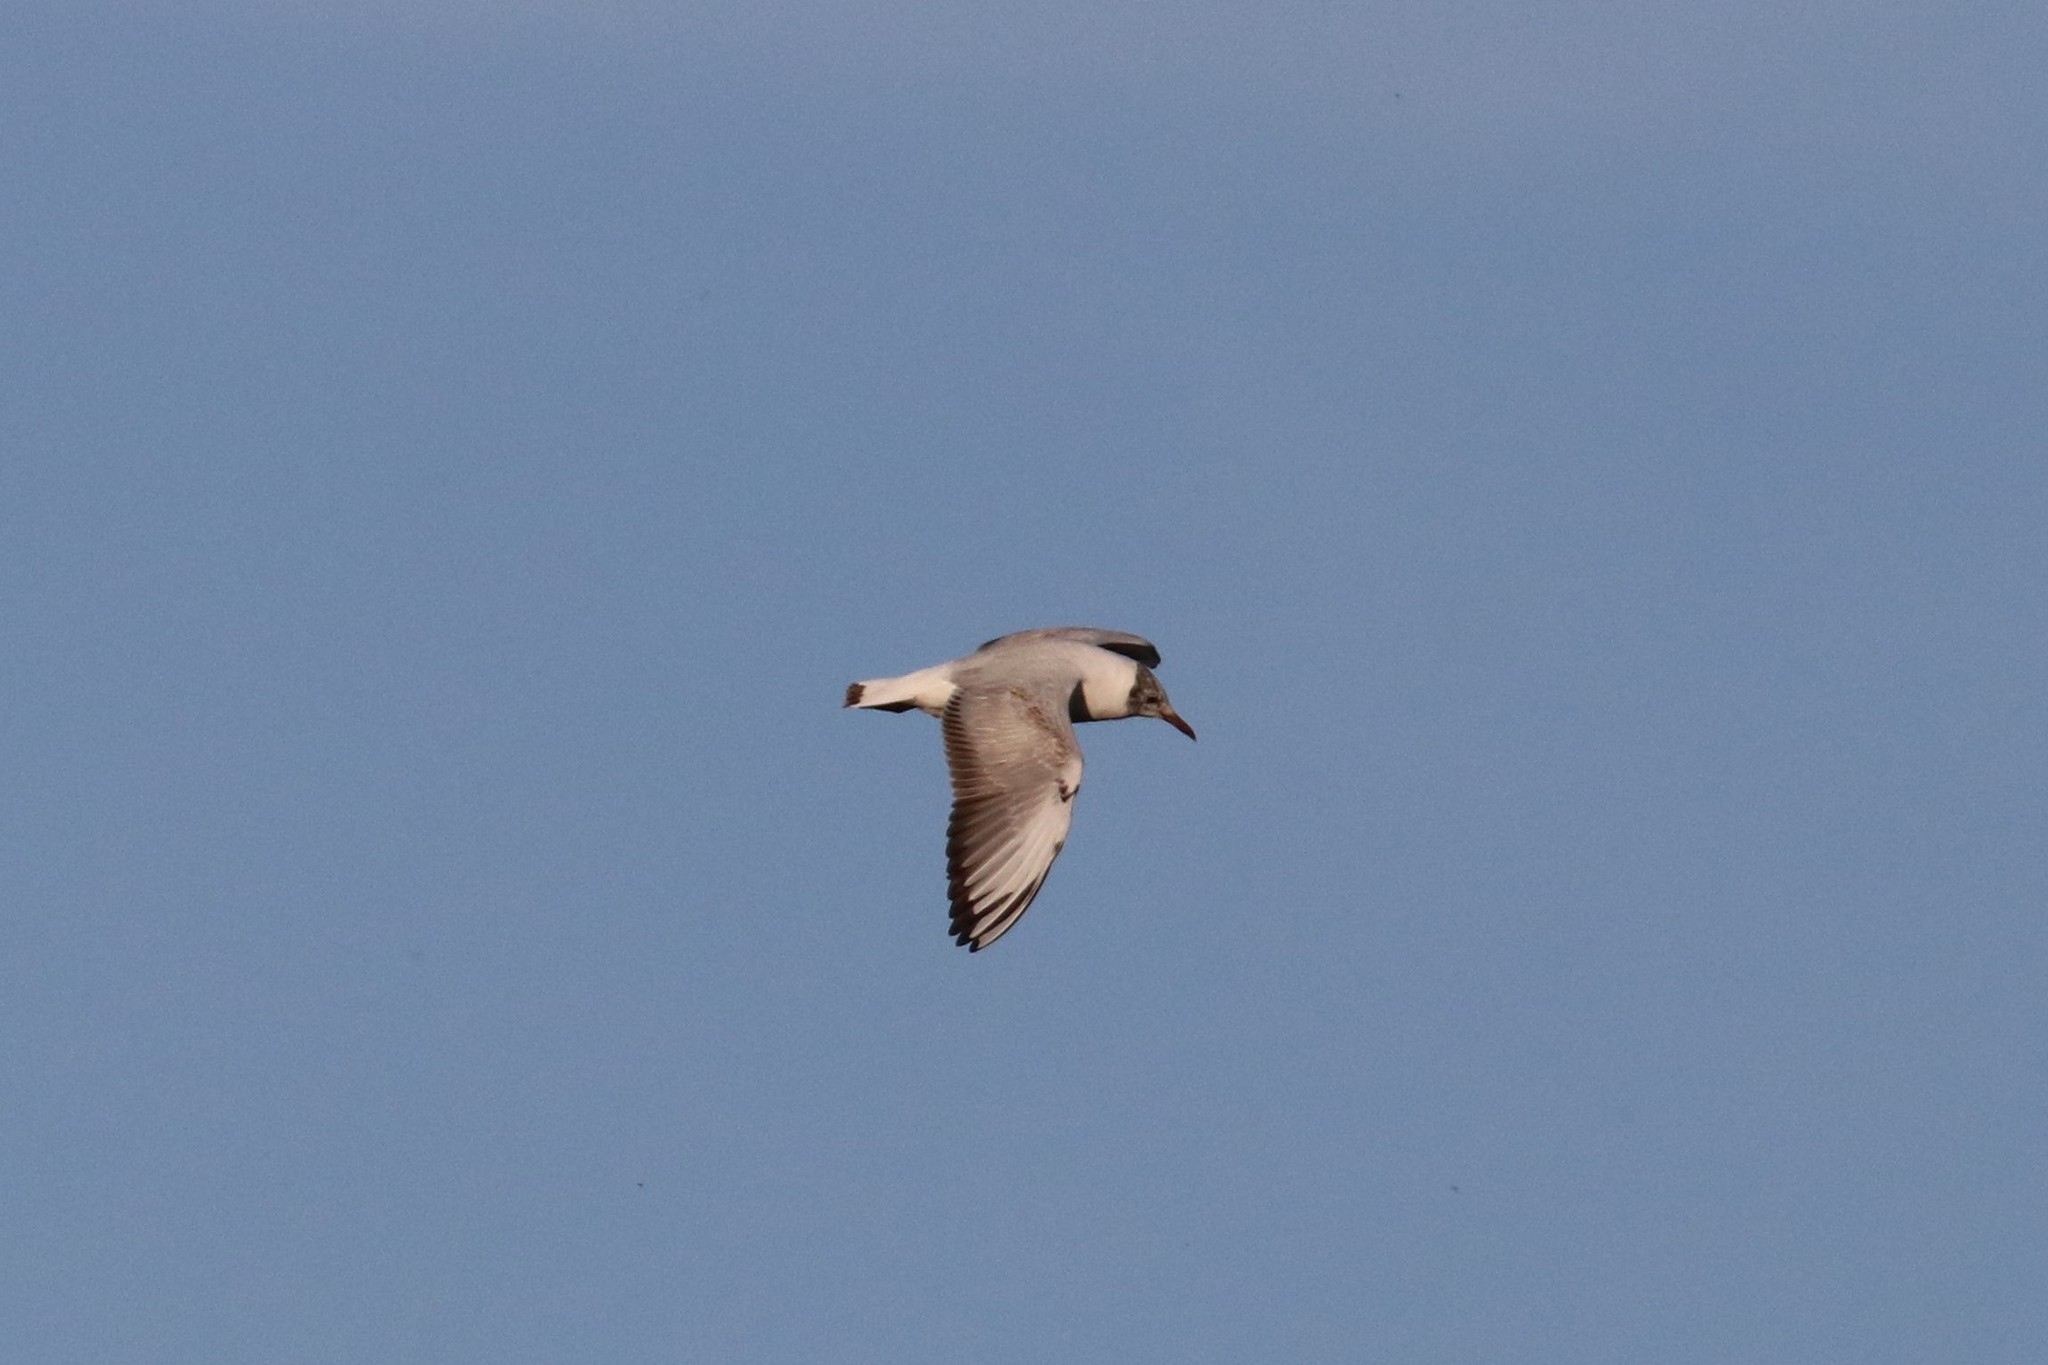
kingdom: Animalia
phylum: Chordata
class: Aves
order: Charadriiformes
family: Laridae
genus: Chroicocephalus
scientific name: Chroicocephalus ridibundus
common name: Black-headed gull
